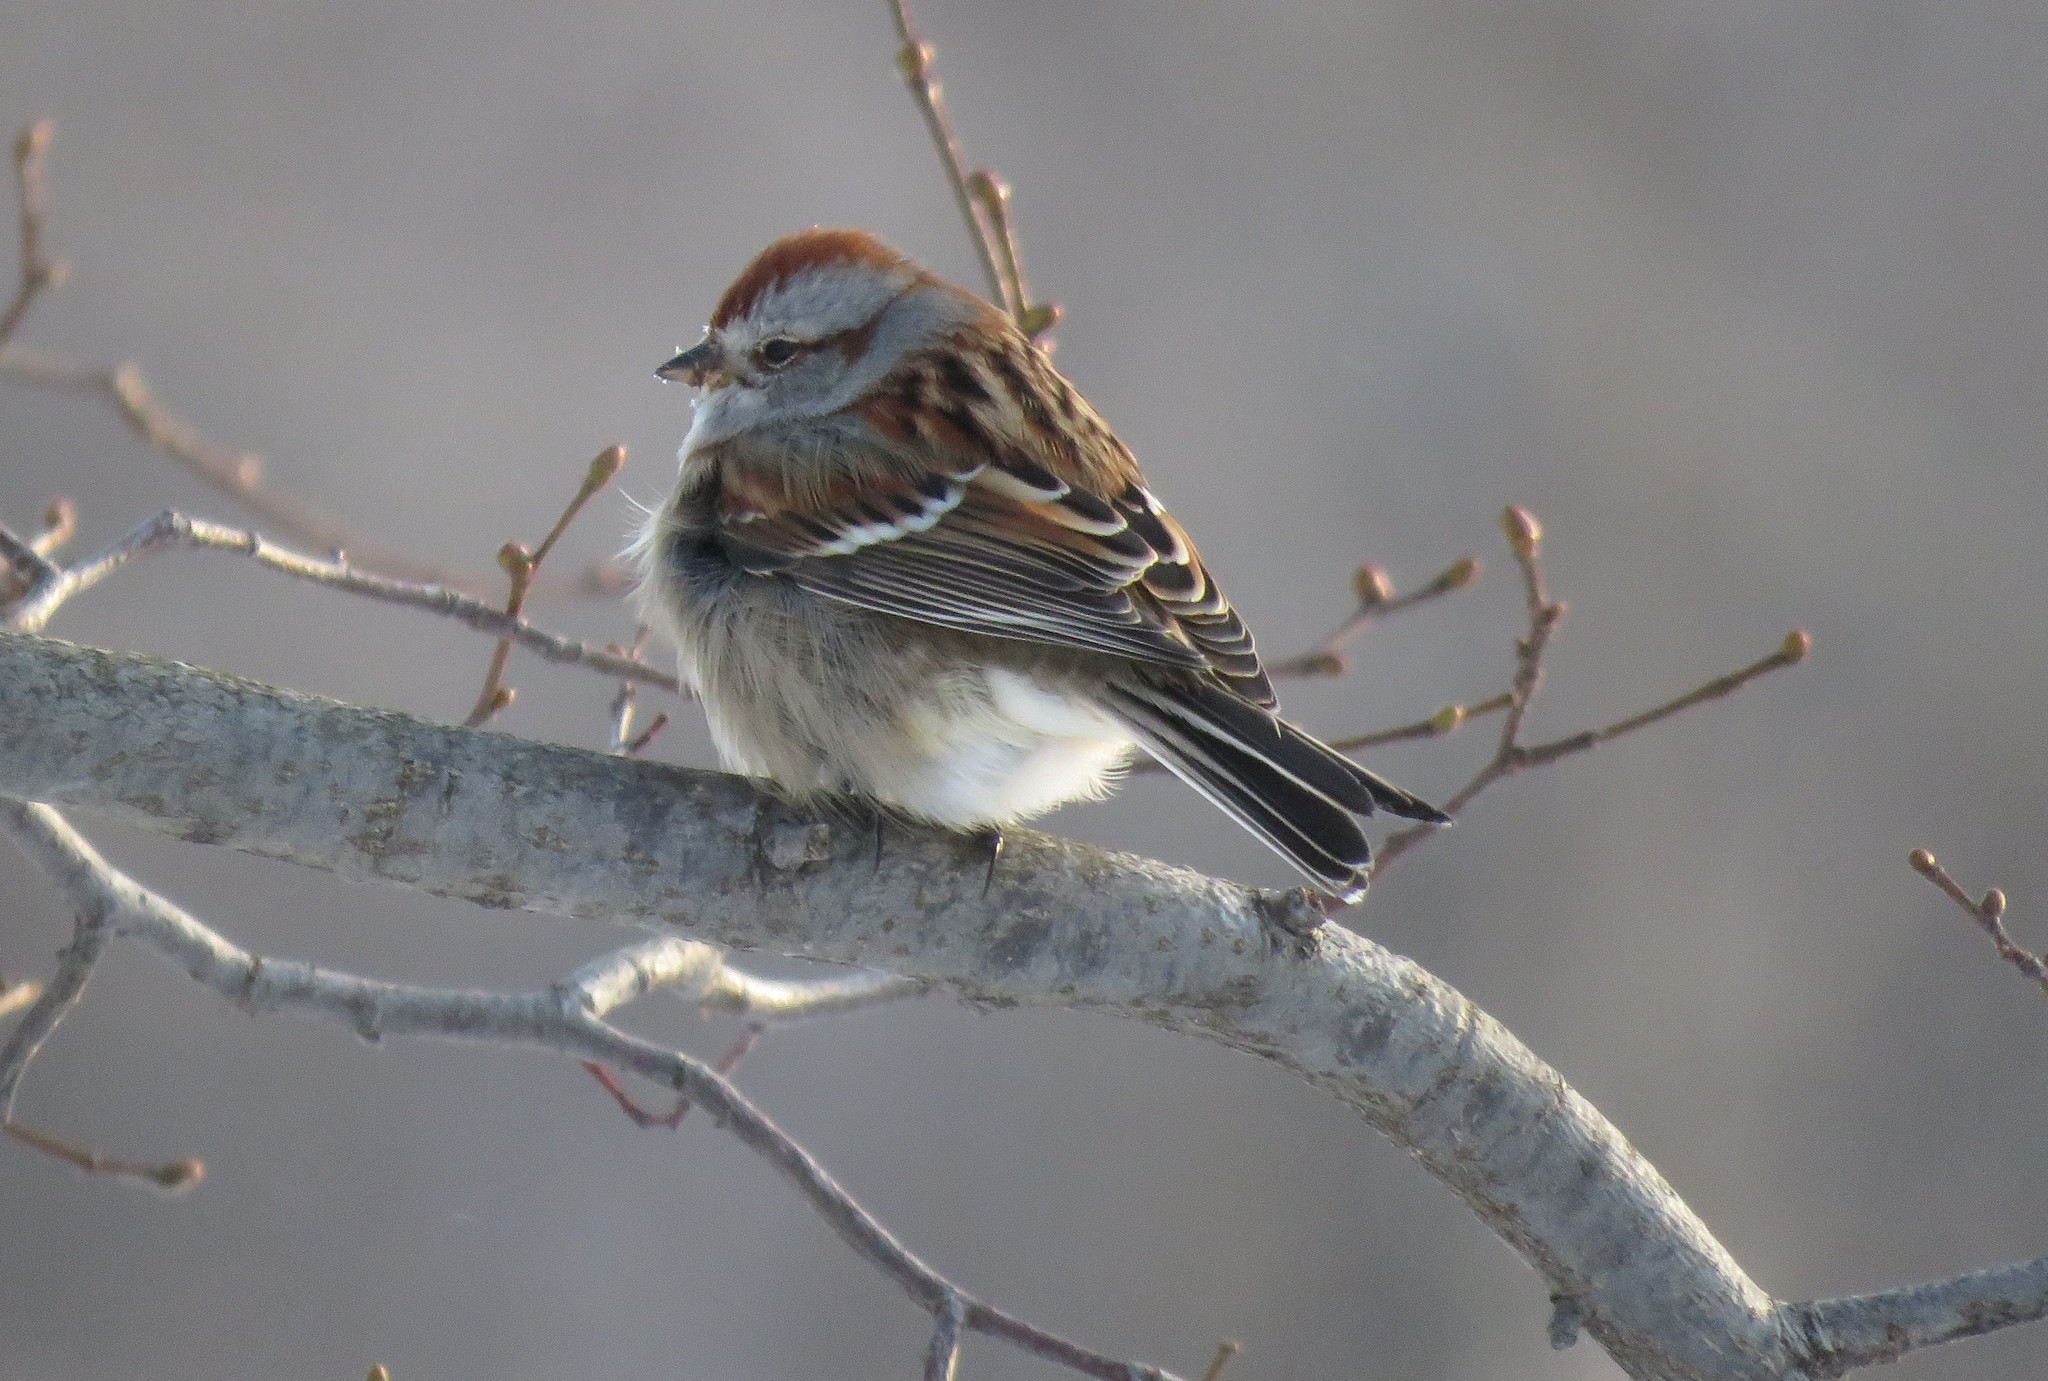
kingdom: Animalia
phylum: Chordata
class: Aves
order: Passeriformes
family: Passerellidae
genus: Spizelloides
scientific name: Spizelloides arborea
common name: American tree sparrow
